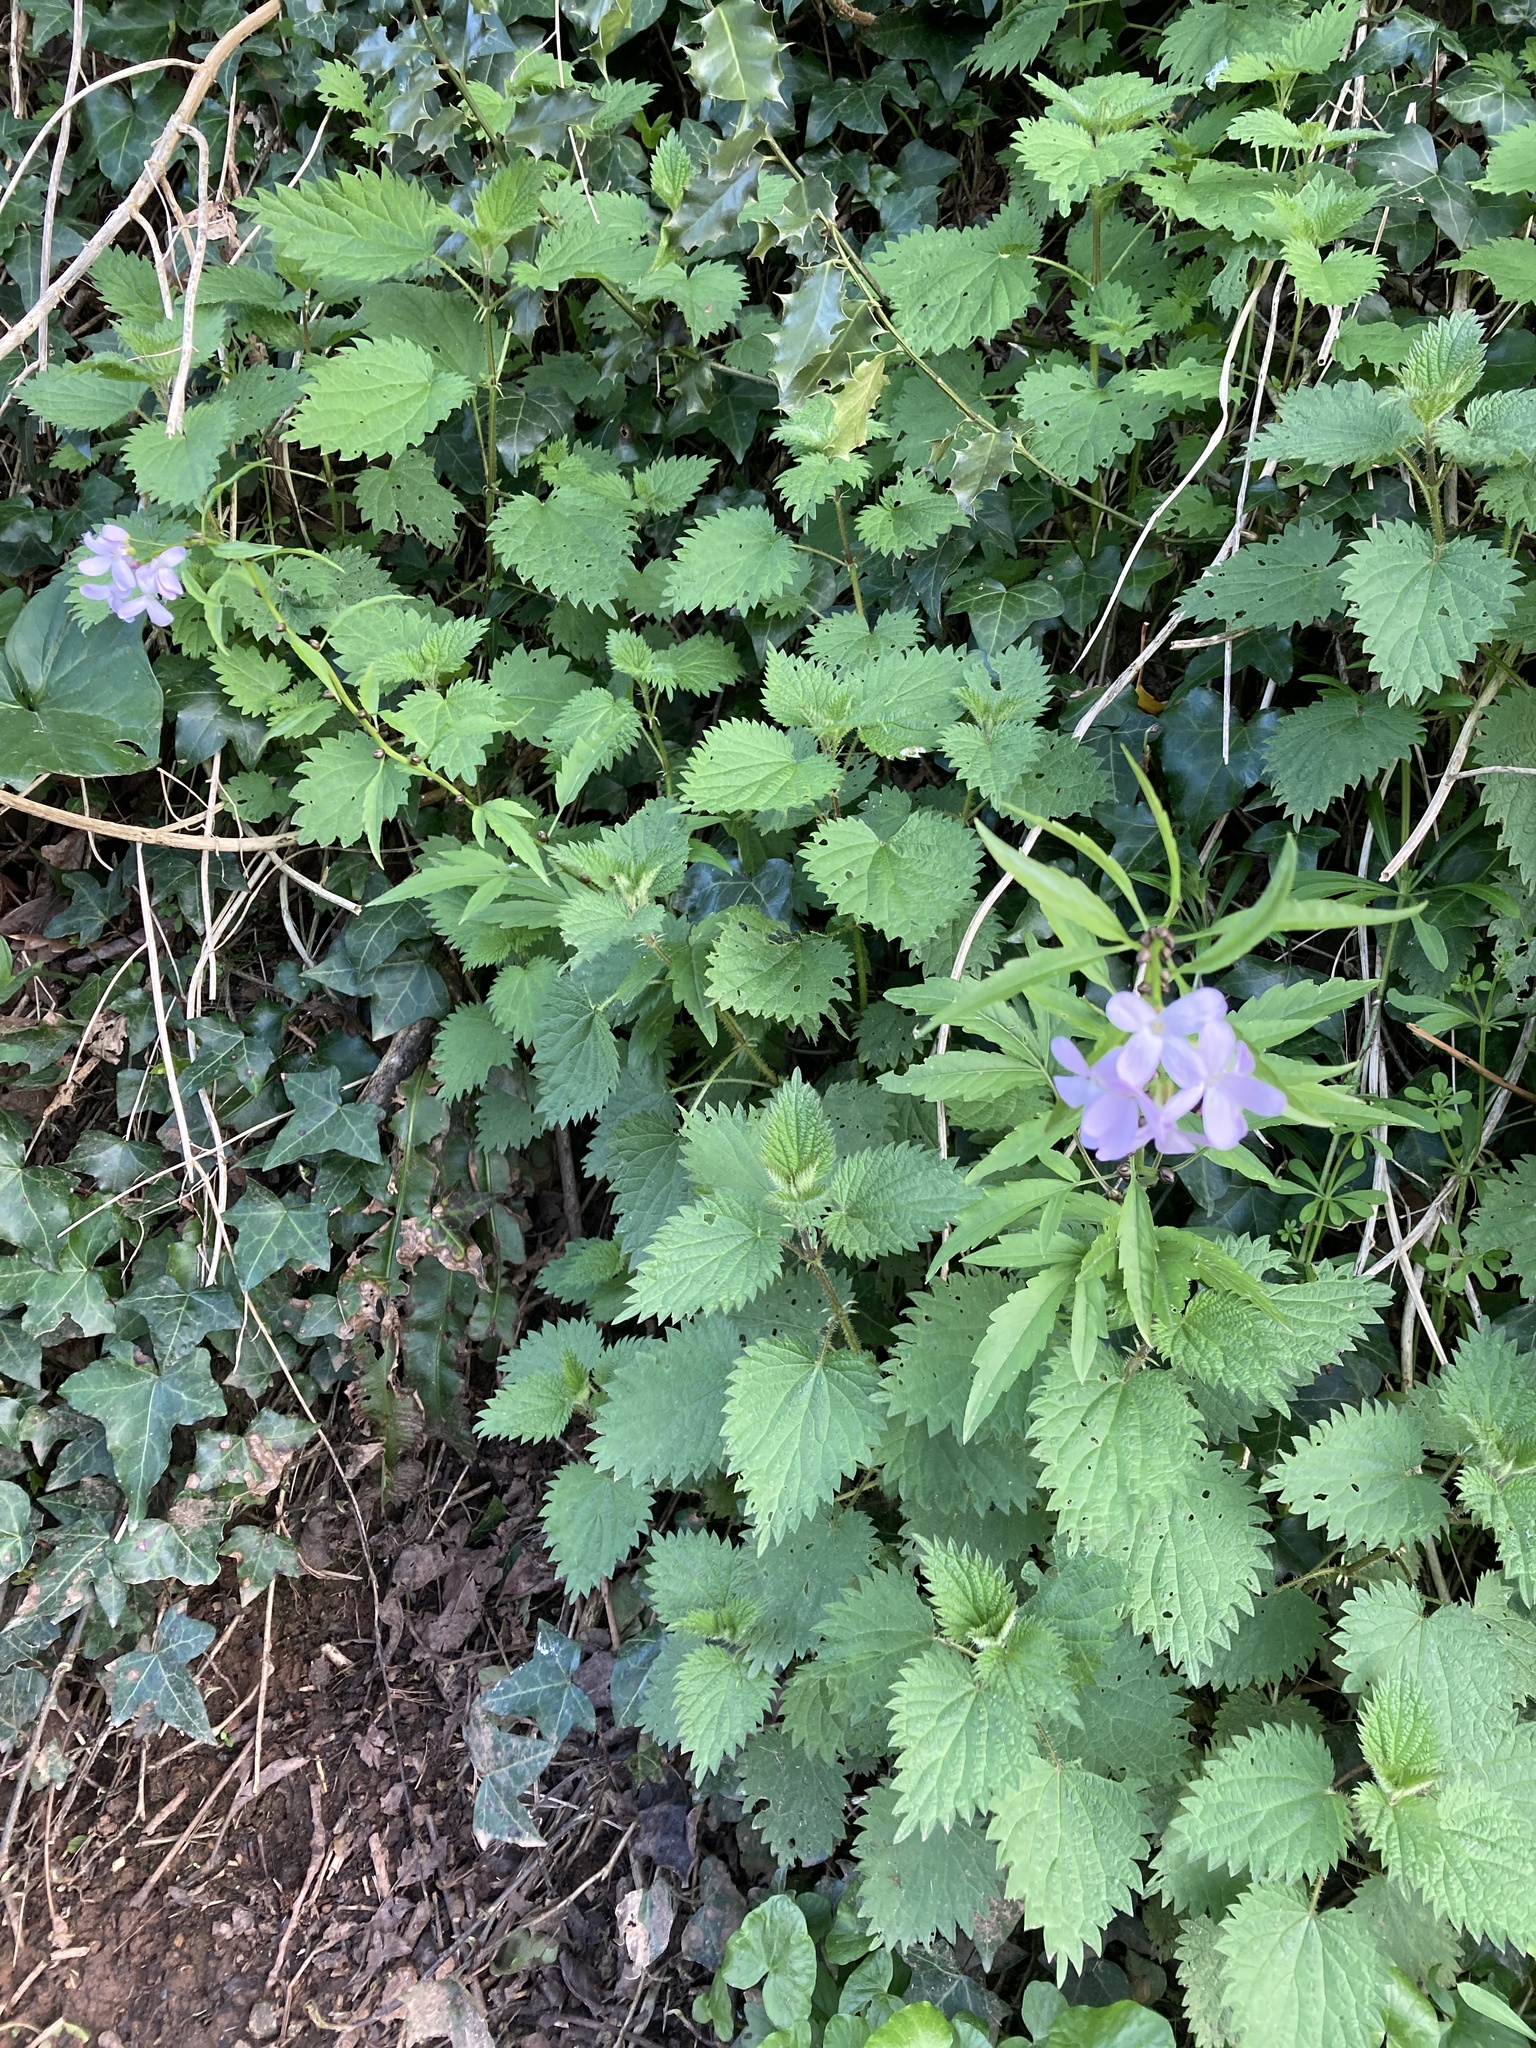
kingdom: Plantae
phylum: Tracheophyta
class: Magnoliopsida
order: Brassicales
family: Brassicaceae
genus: Cardamine
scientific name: Cardamine bulbifera
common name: Coralroot bittercress
